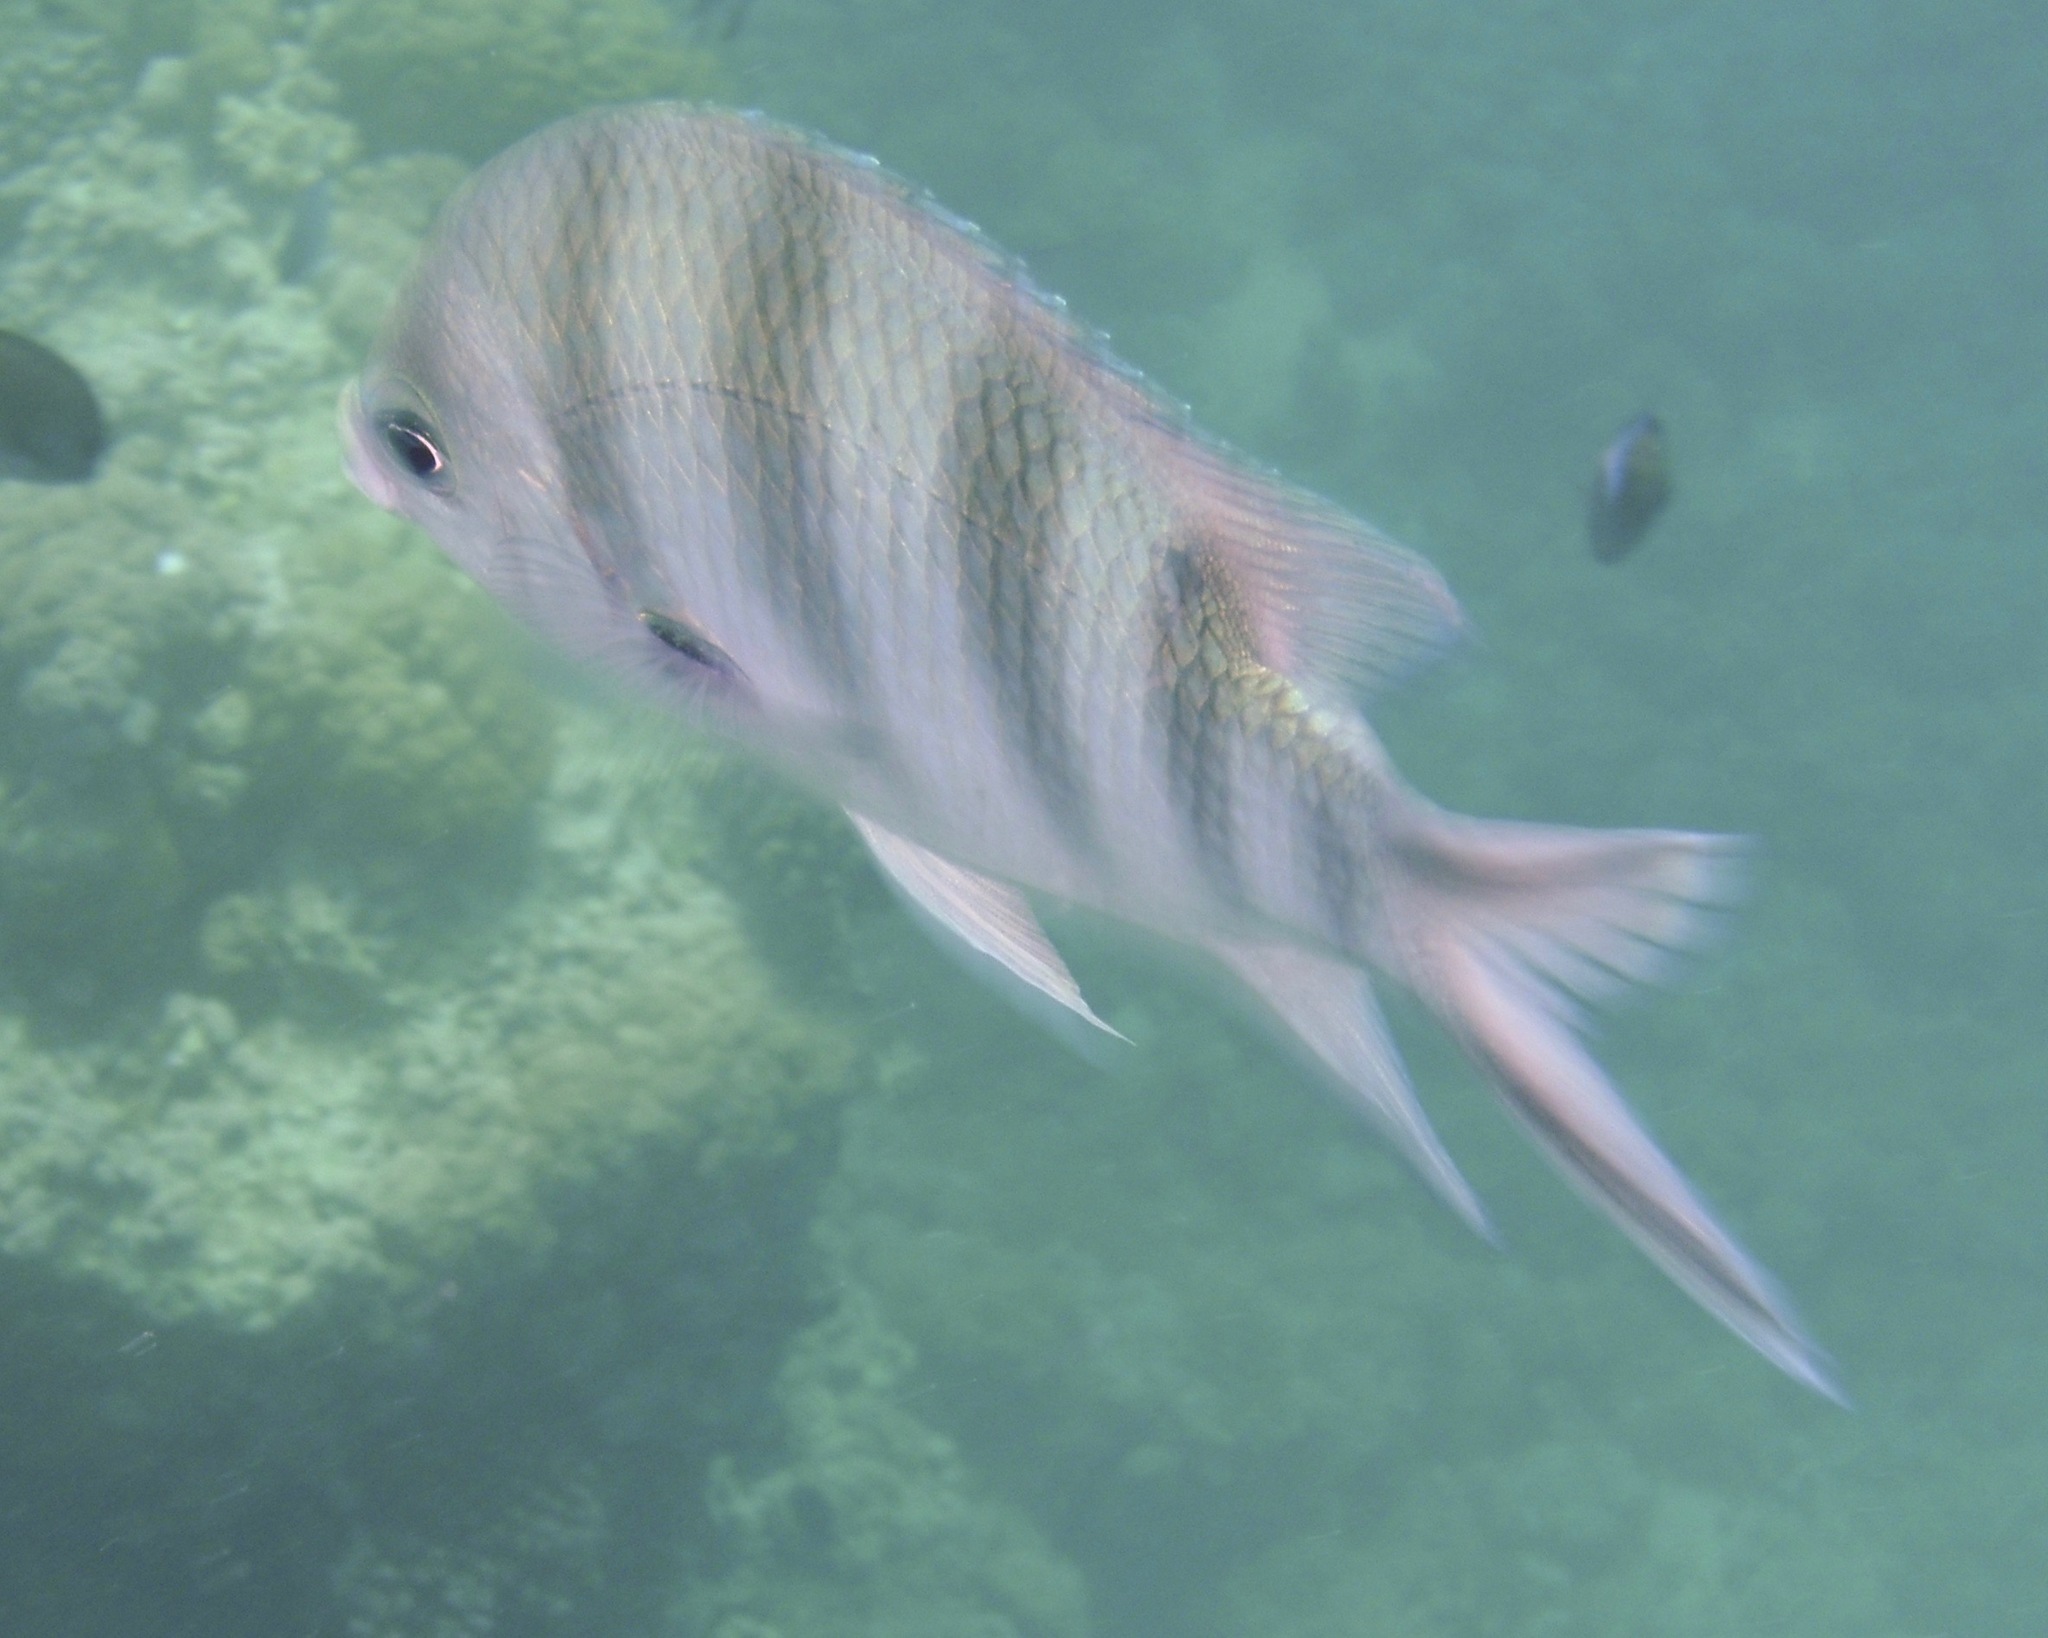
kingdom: Animalia
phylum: Chordata
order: Perciformes
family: Pomacentridae
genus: Abudefduf
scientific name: Abudefduf sexfasciatus
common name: Scissortail sergeant
